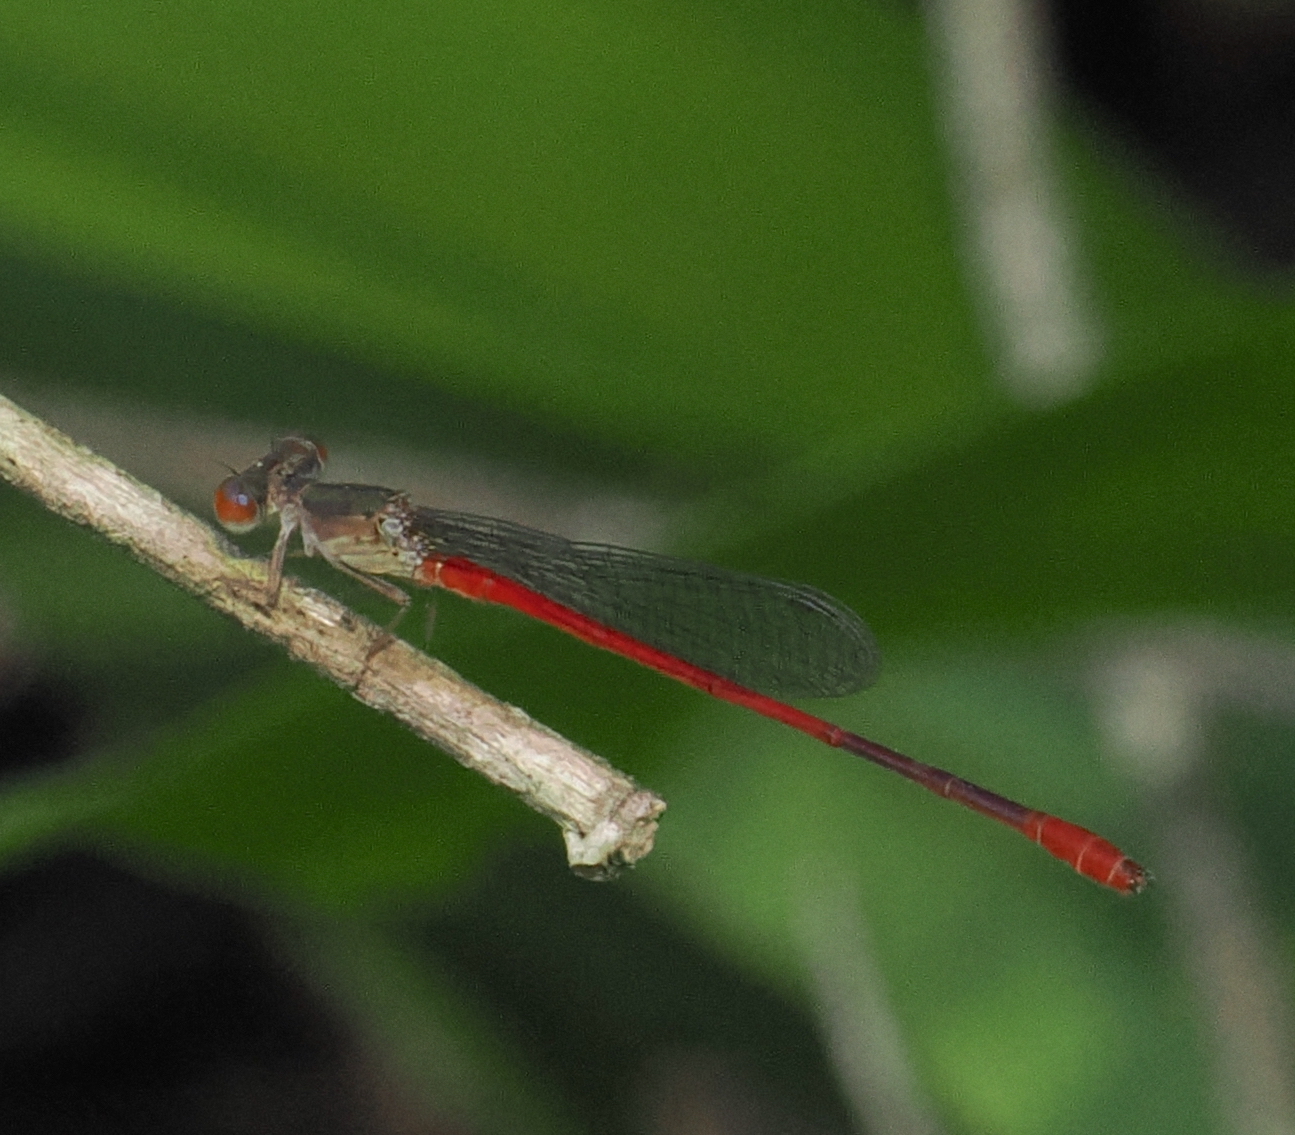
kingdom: Animalia
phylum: Arthropoda
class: Insecta
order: Odonata
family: Coenagrionidae
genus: Telebasis
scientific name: Telebasis griffinii
